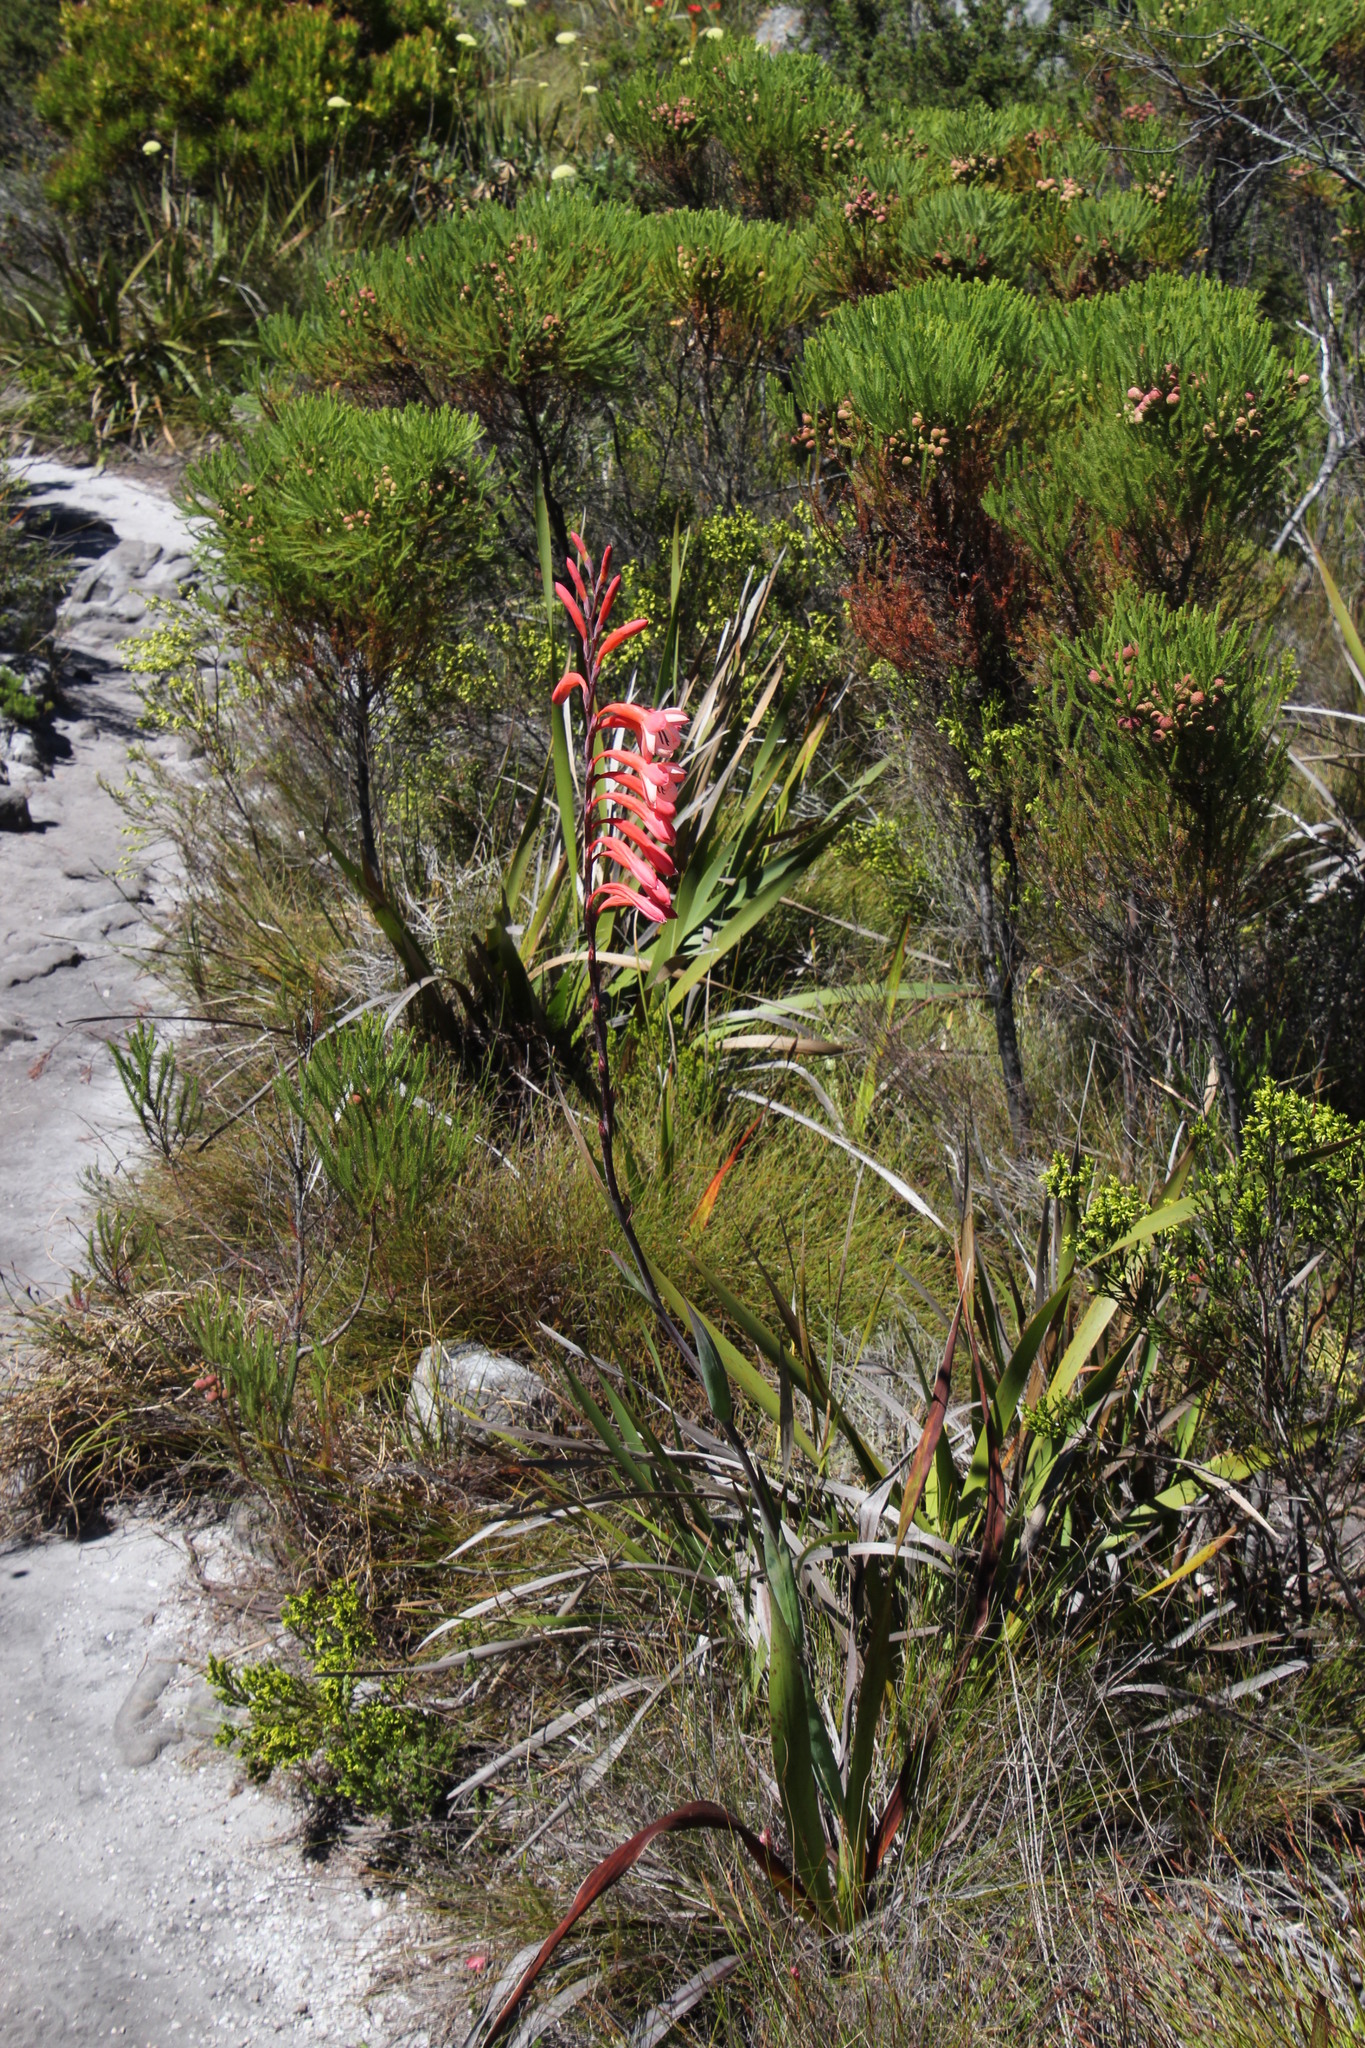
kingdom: Plantae
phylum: Tracheophyta
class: Liliopsida
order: Asparagales
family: Iridaceae
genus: Watsonia
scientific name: Watsonia tabularis
